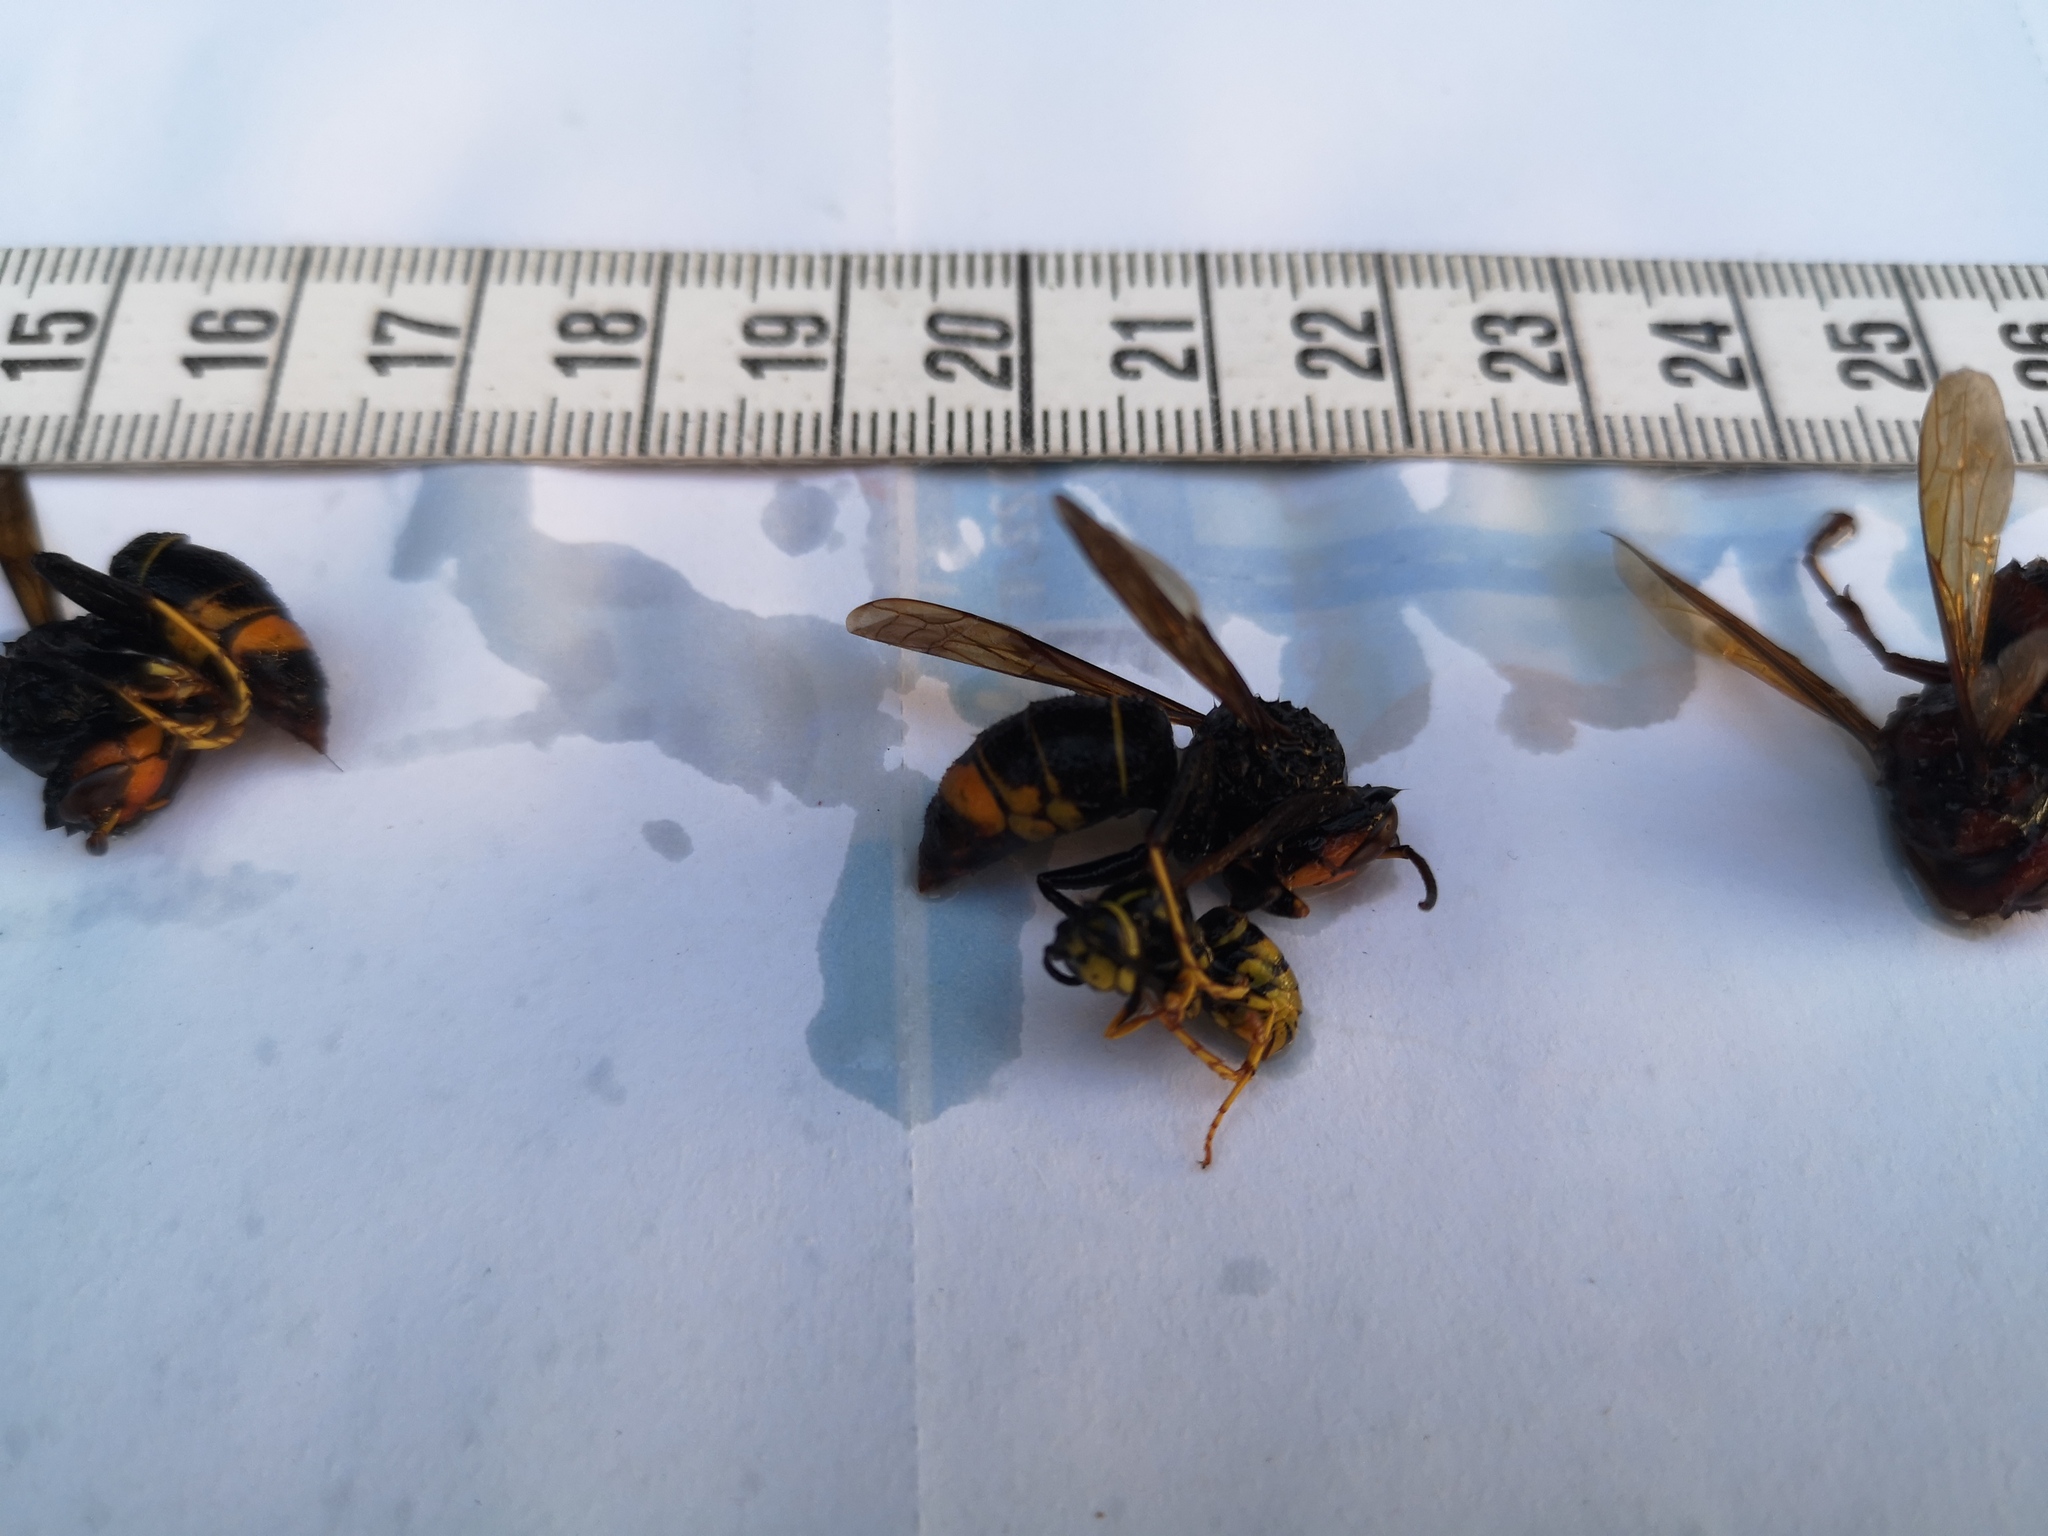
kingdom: Animalia
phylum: Arthropoda
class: Insecta
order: Hymenoptera
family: Vespidae
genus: Vespa
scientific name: Vespa velutina
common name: Asian hornet
